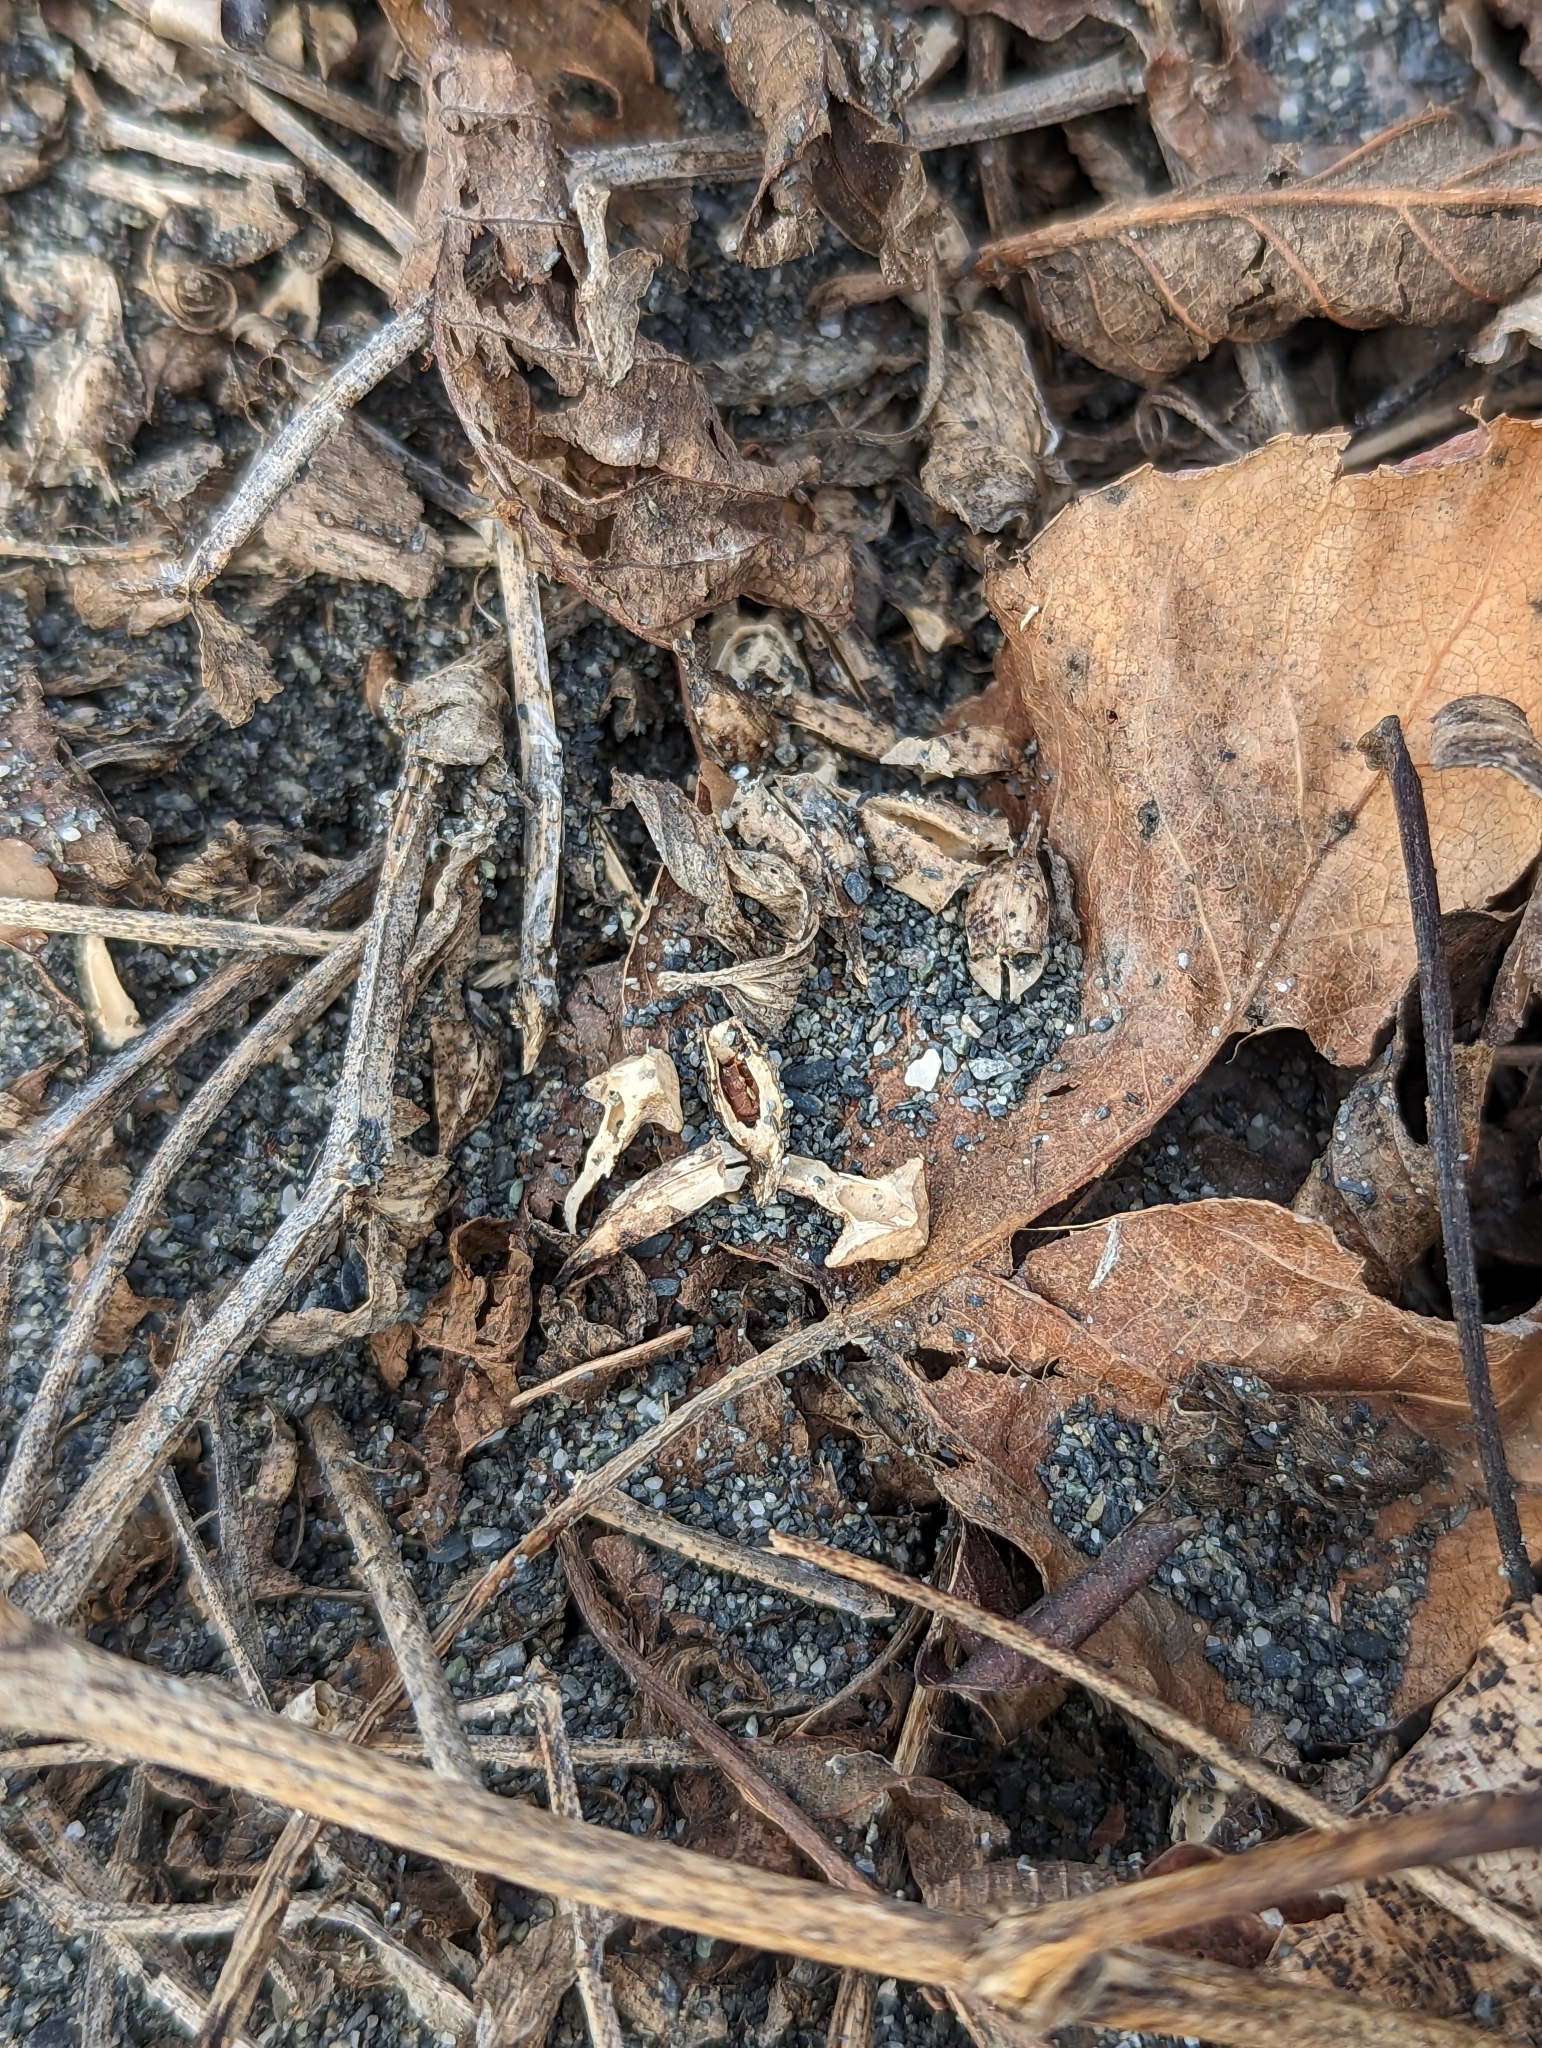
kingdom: Plantae
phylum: Tracheophyta
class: Magnoliopsida
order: Brassicales
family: Brassicaceae
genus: Cakile
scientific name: Cakile maritima
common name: Sea rocket
